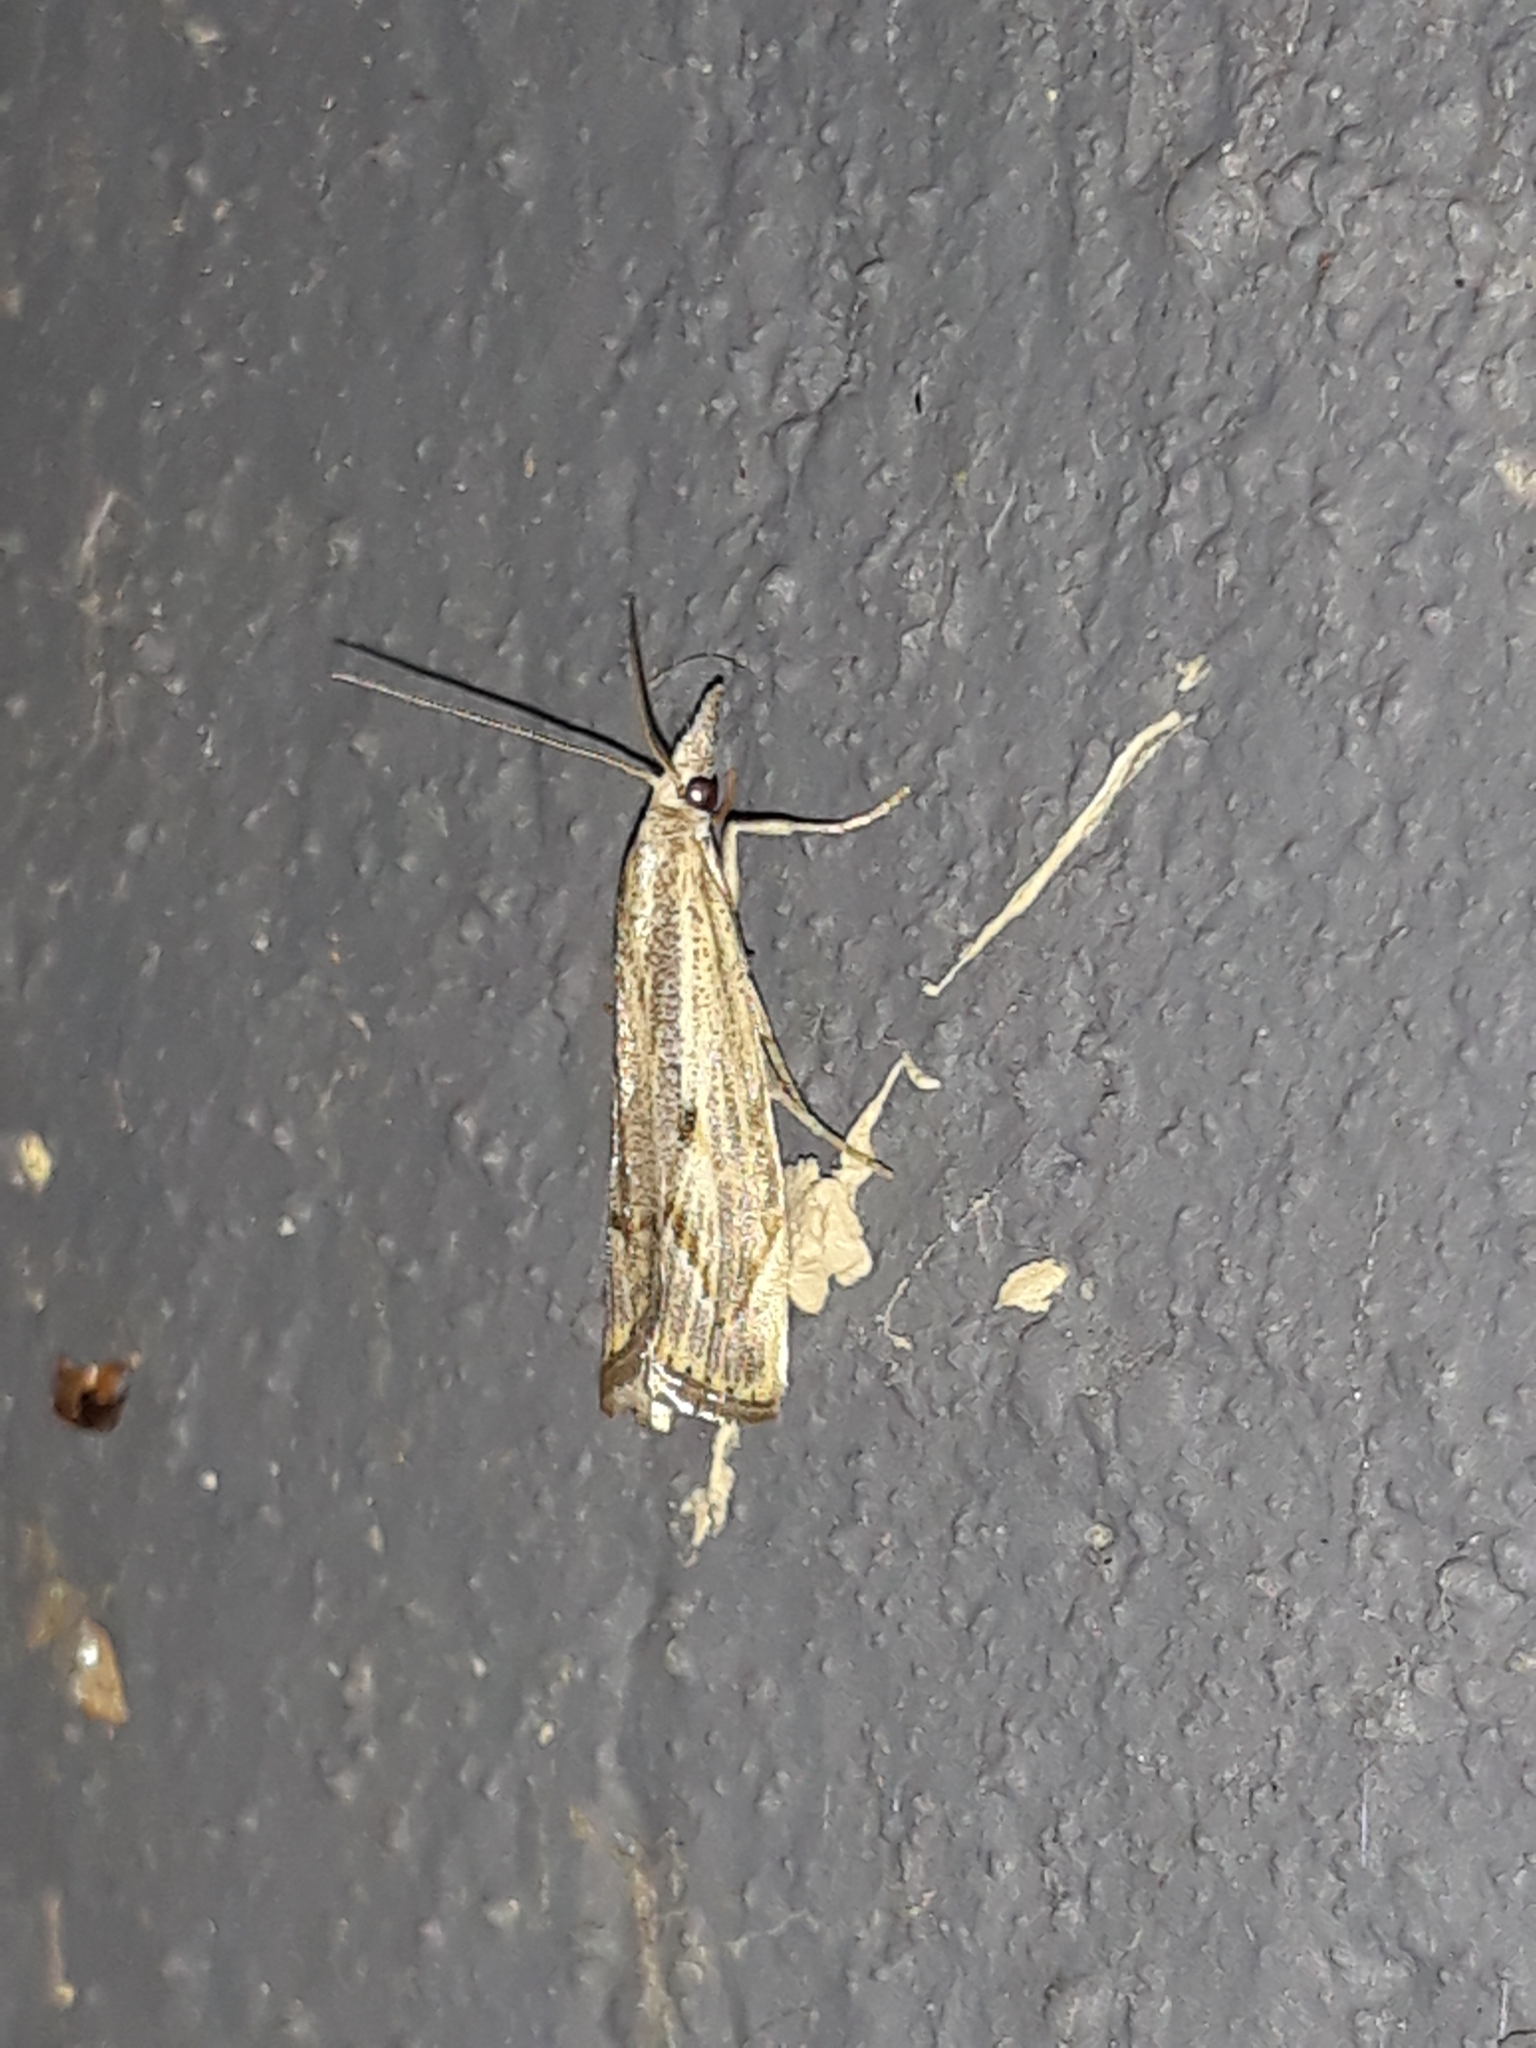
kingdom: Animalia
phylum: Arthropoda
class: Insecta
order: Lepidoptera
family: Crambidae
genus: Agriphila
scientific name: Agriphila geniculea
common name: Elbow-stripe grass-veneer
